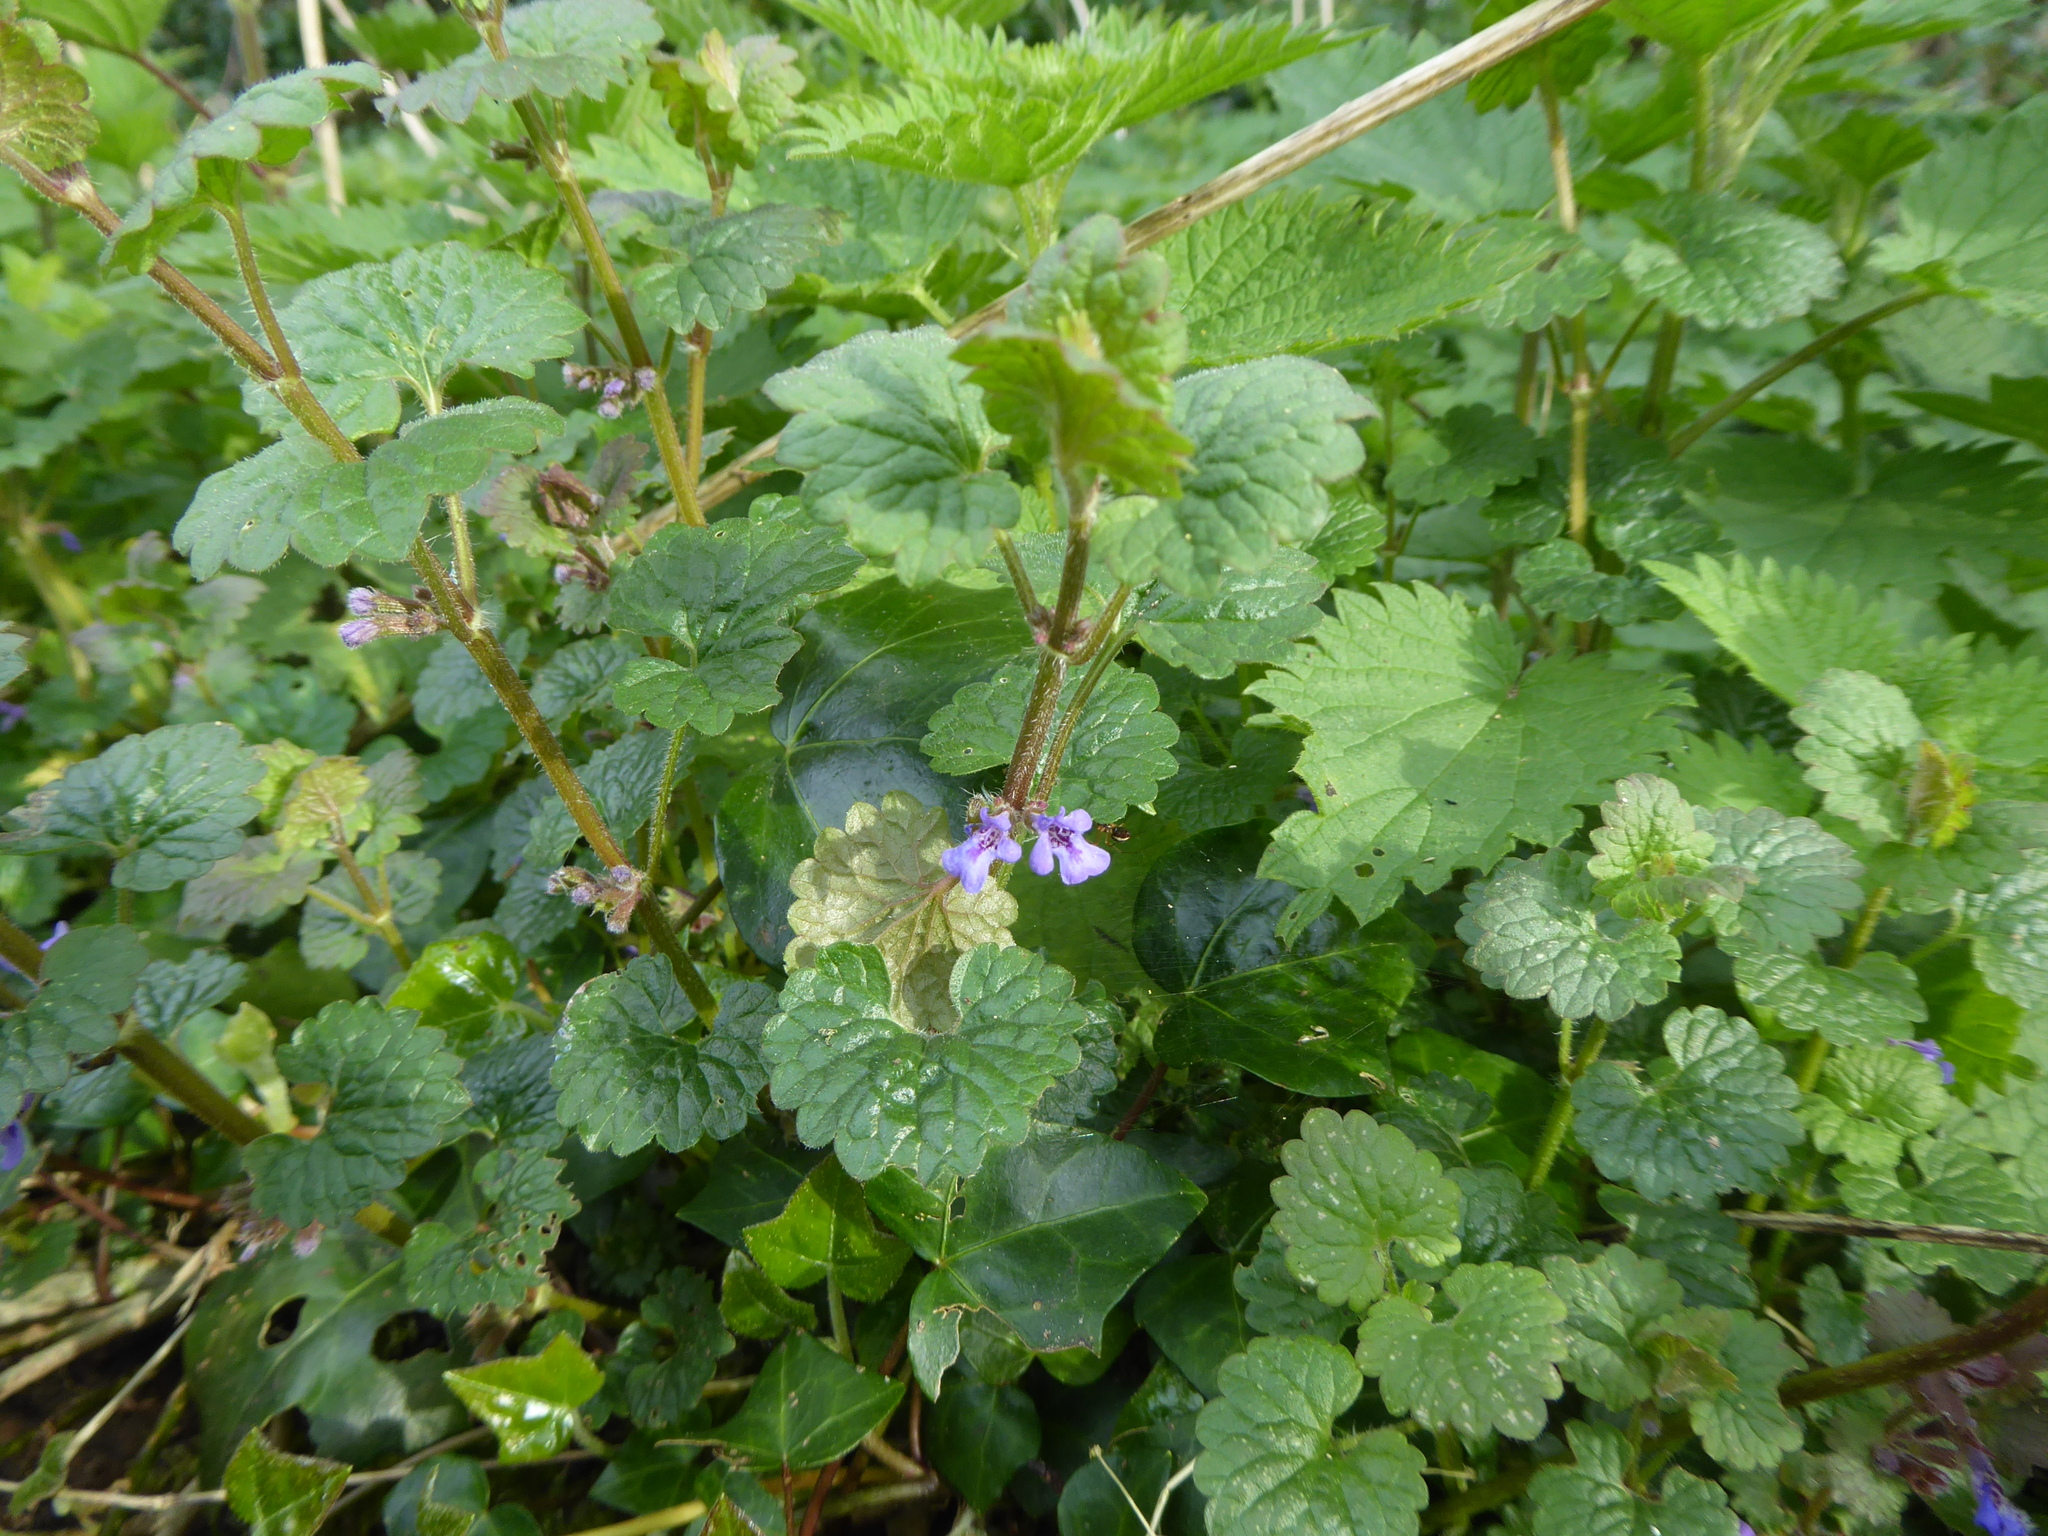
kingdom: Plantae
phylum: Tracheophyta
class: Magnoliopsida
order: Lamiales
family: Lamiaceae
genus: Glechoma
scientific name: Glechoma hederacea
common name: Ground ivy
